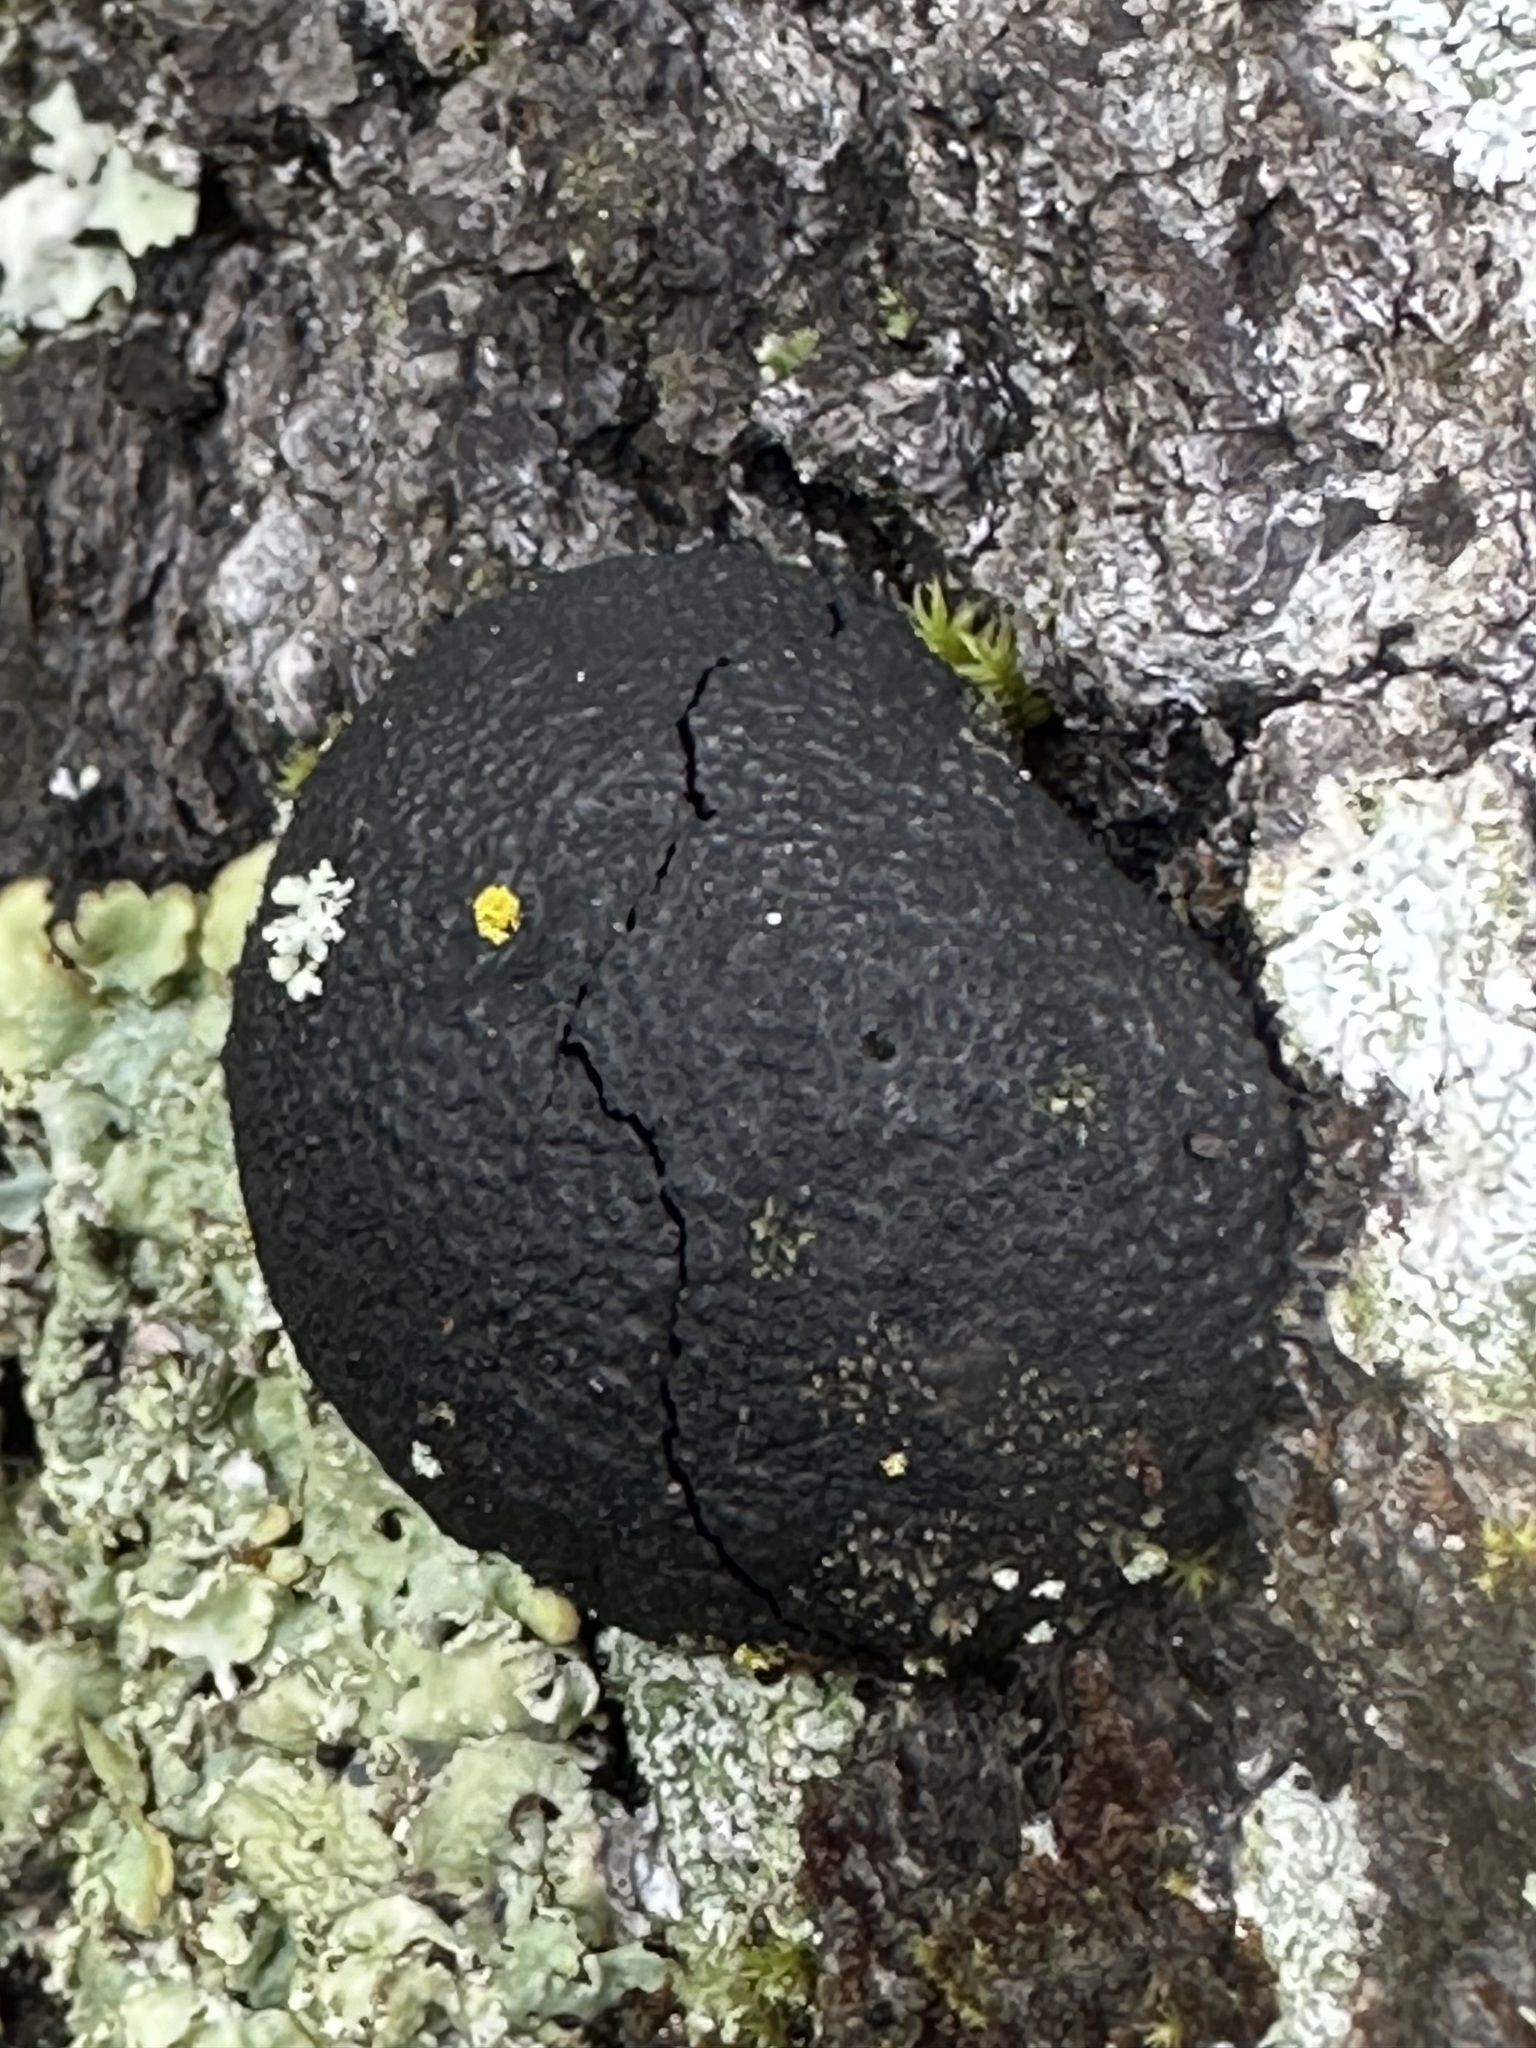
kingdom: Fungi
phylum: Ascomycota
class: Sordariomycetes
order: Xylariales
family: Hypoxylaceae
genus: Annulohypoxylon
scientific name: Annulohypoxylon thouarsianum
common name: Cramp balls
